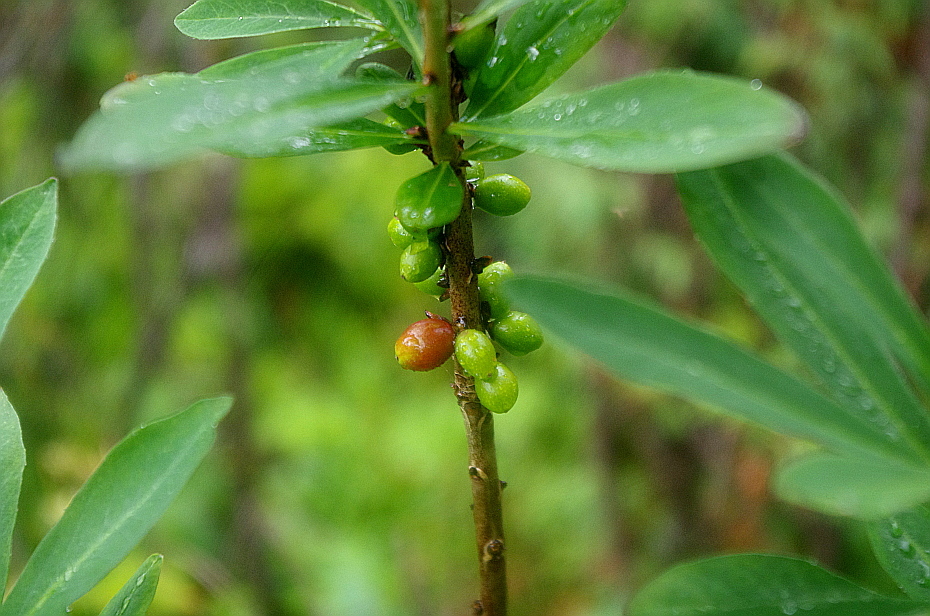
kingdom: Plantae
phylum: Tracheophyta
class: Magnoliopsida
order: Malvales
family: Thymelaeaceae
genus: Daphne
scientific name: Daphne mezereum
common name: Mezereon
